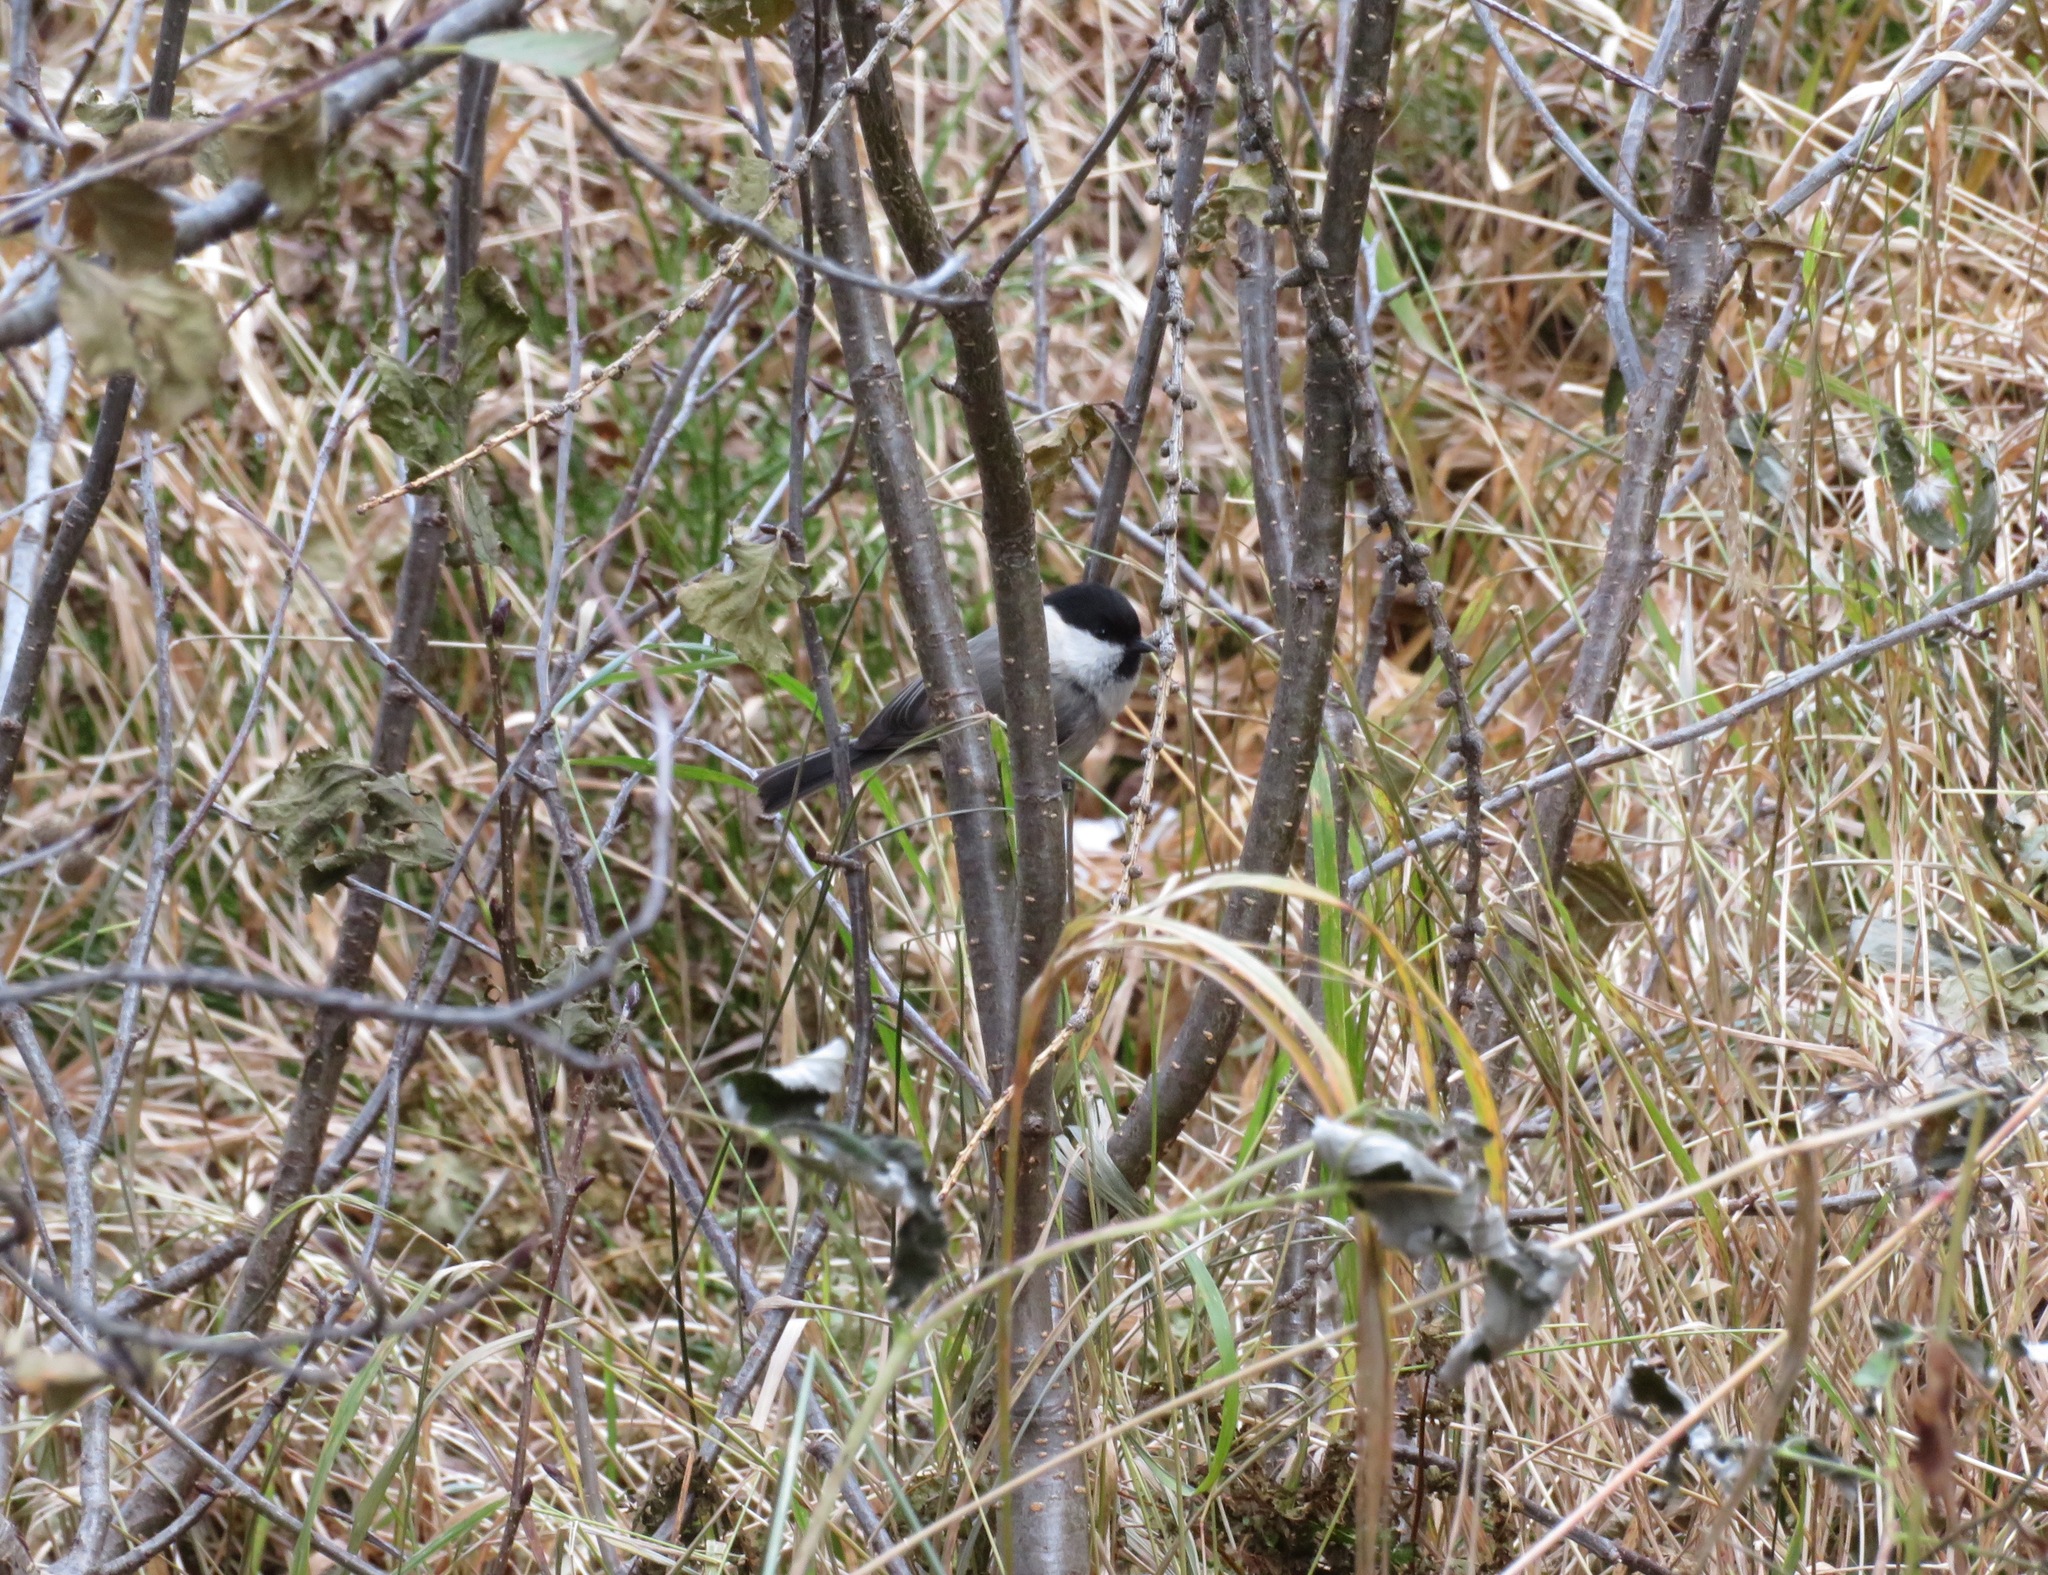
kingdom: Animalia
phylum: Chordata
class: Aves
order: Passeriformes
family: Paridae
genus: Poecile
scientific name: Poecile montanus
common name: Willow tit
